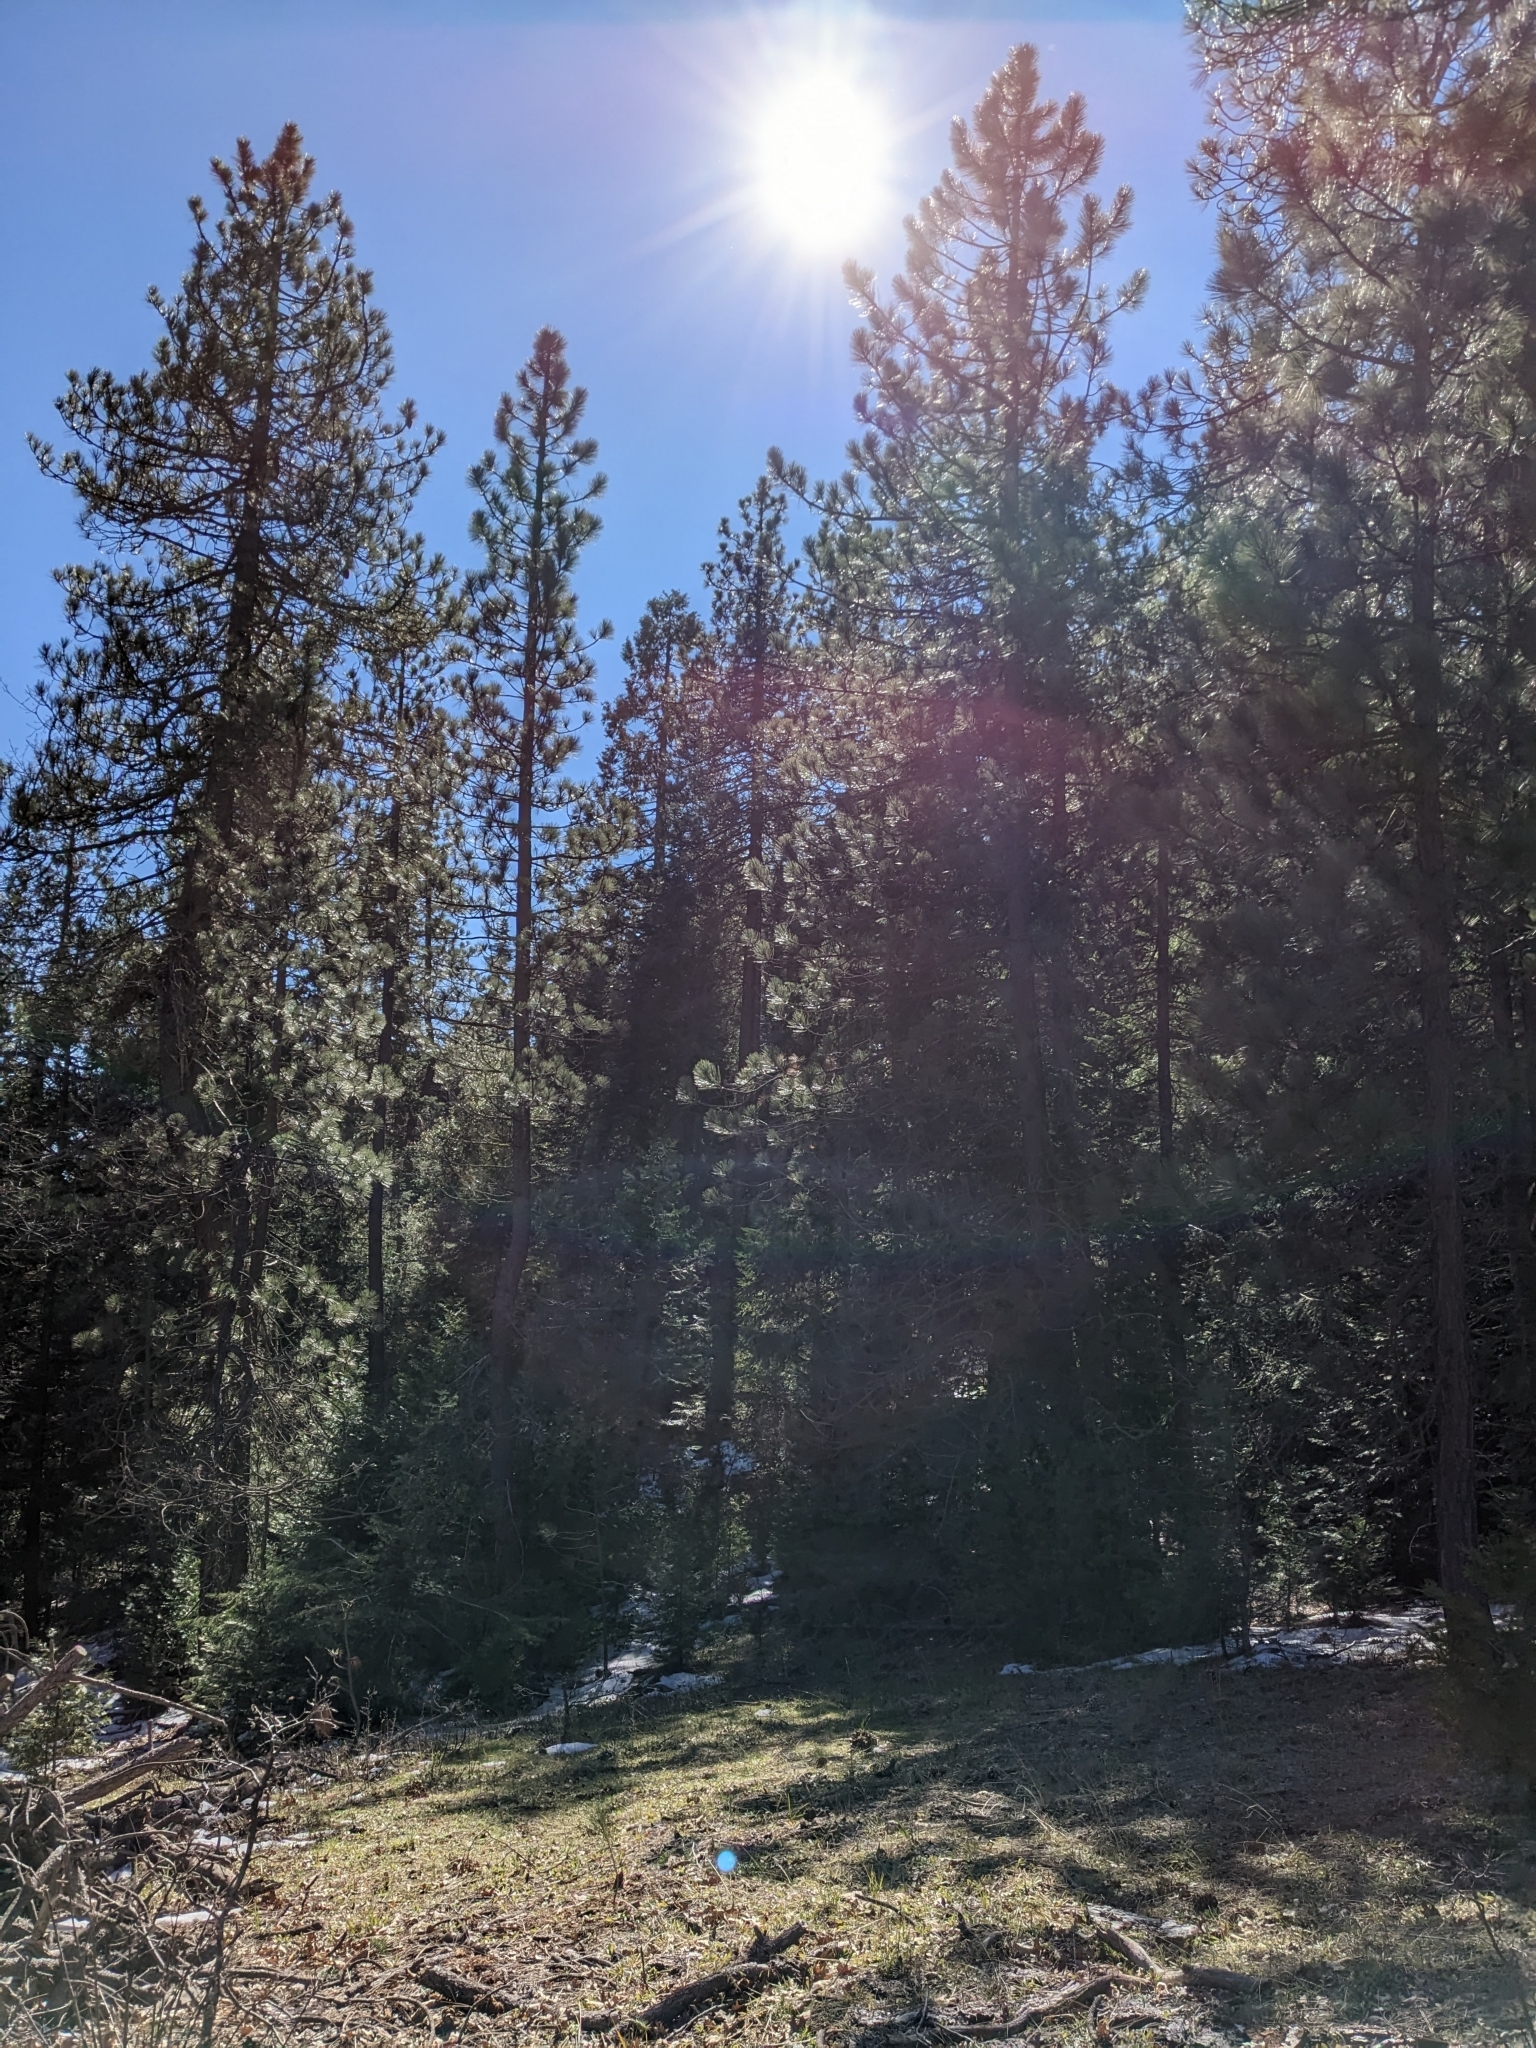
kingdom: Plantae
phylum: Tracheophyta
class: Pinopsida
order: Pinales
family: Pinaceae
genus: Pinus
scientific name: Pinus coulteri
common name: Coulter pine
